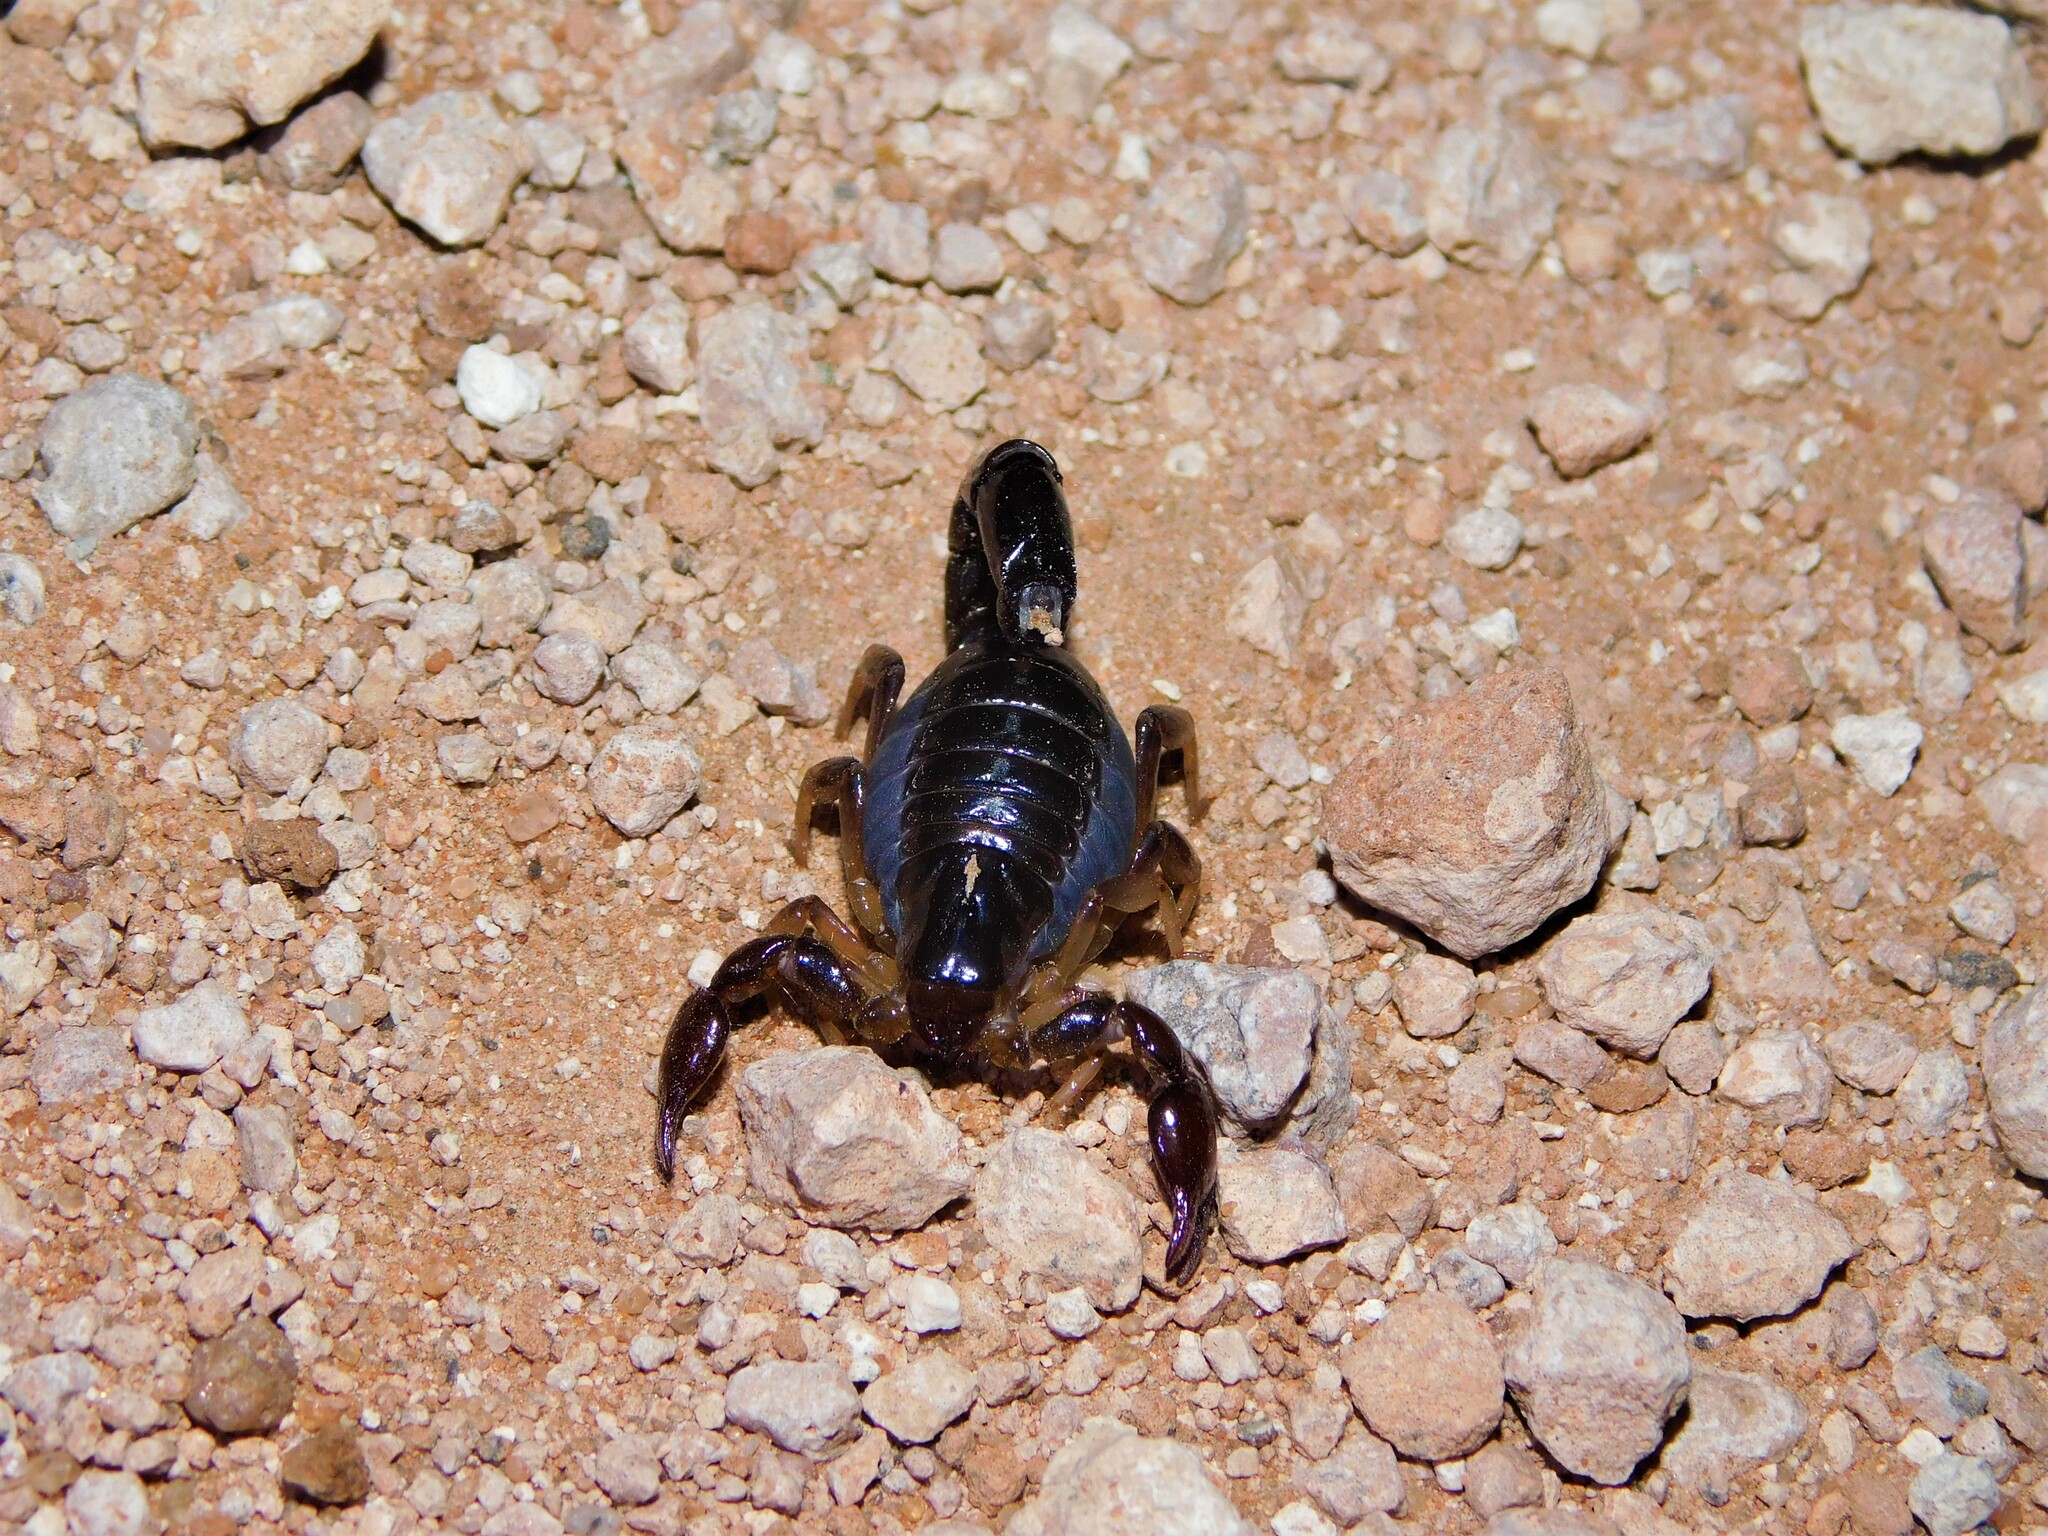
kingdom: Animalia
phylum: Arthropoda
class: Arachnida
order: Scorpiones
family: Bothriuridae
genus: Bothriurus
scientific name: Bothriurus bonariensis
